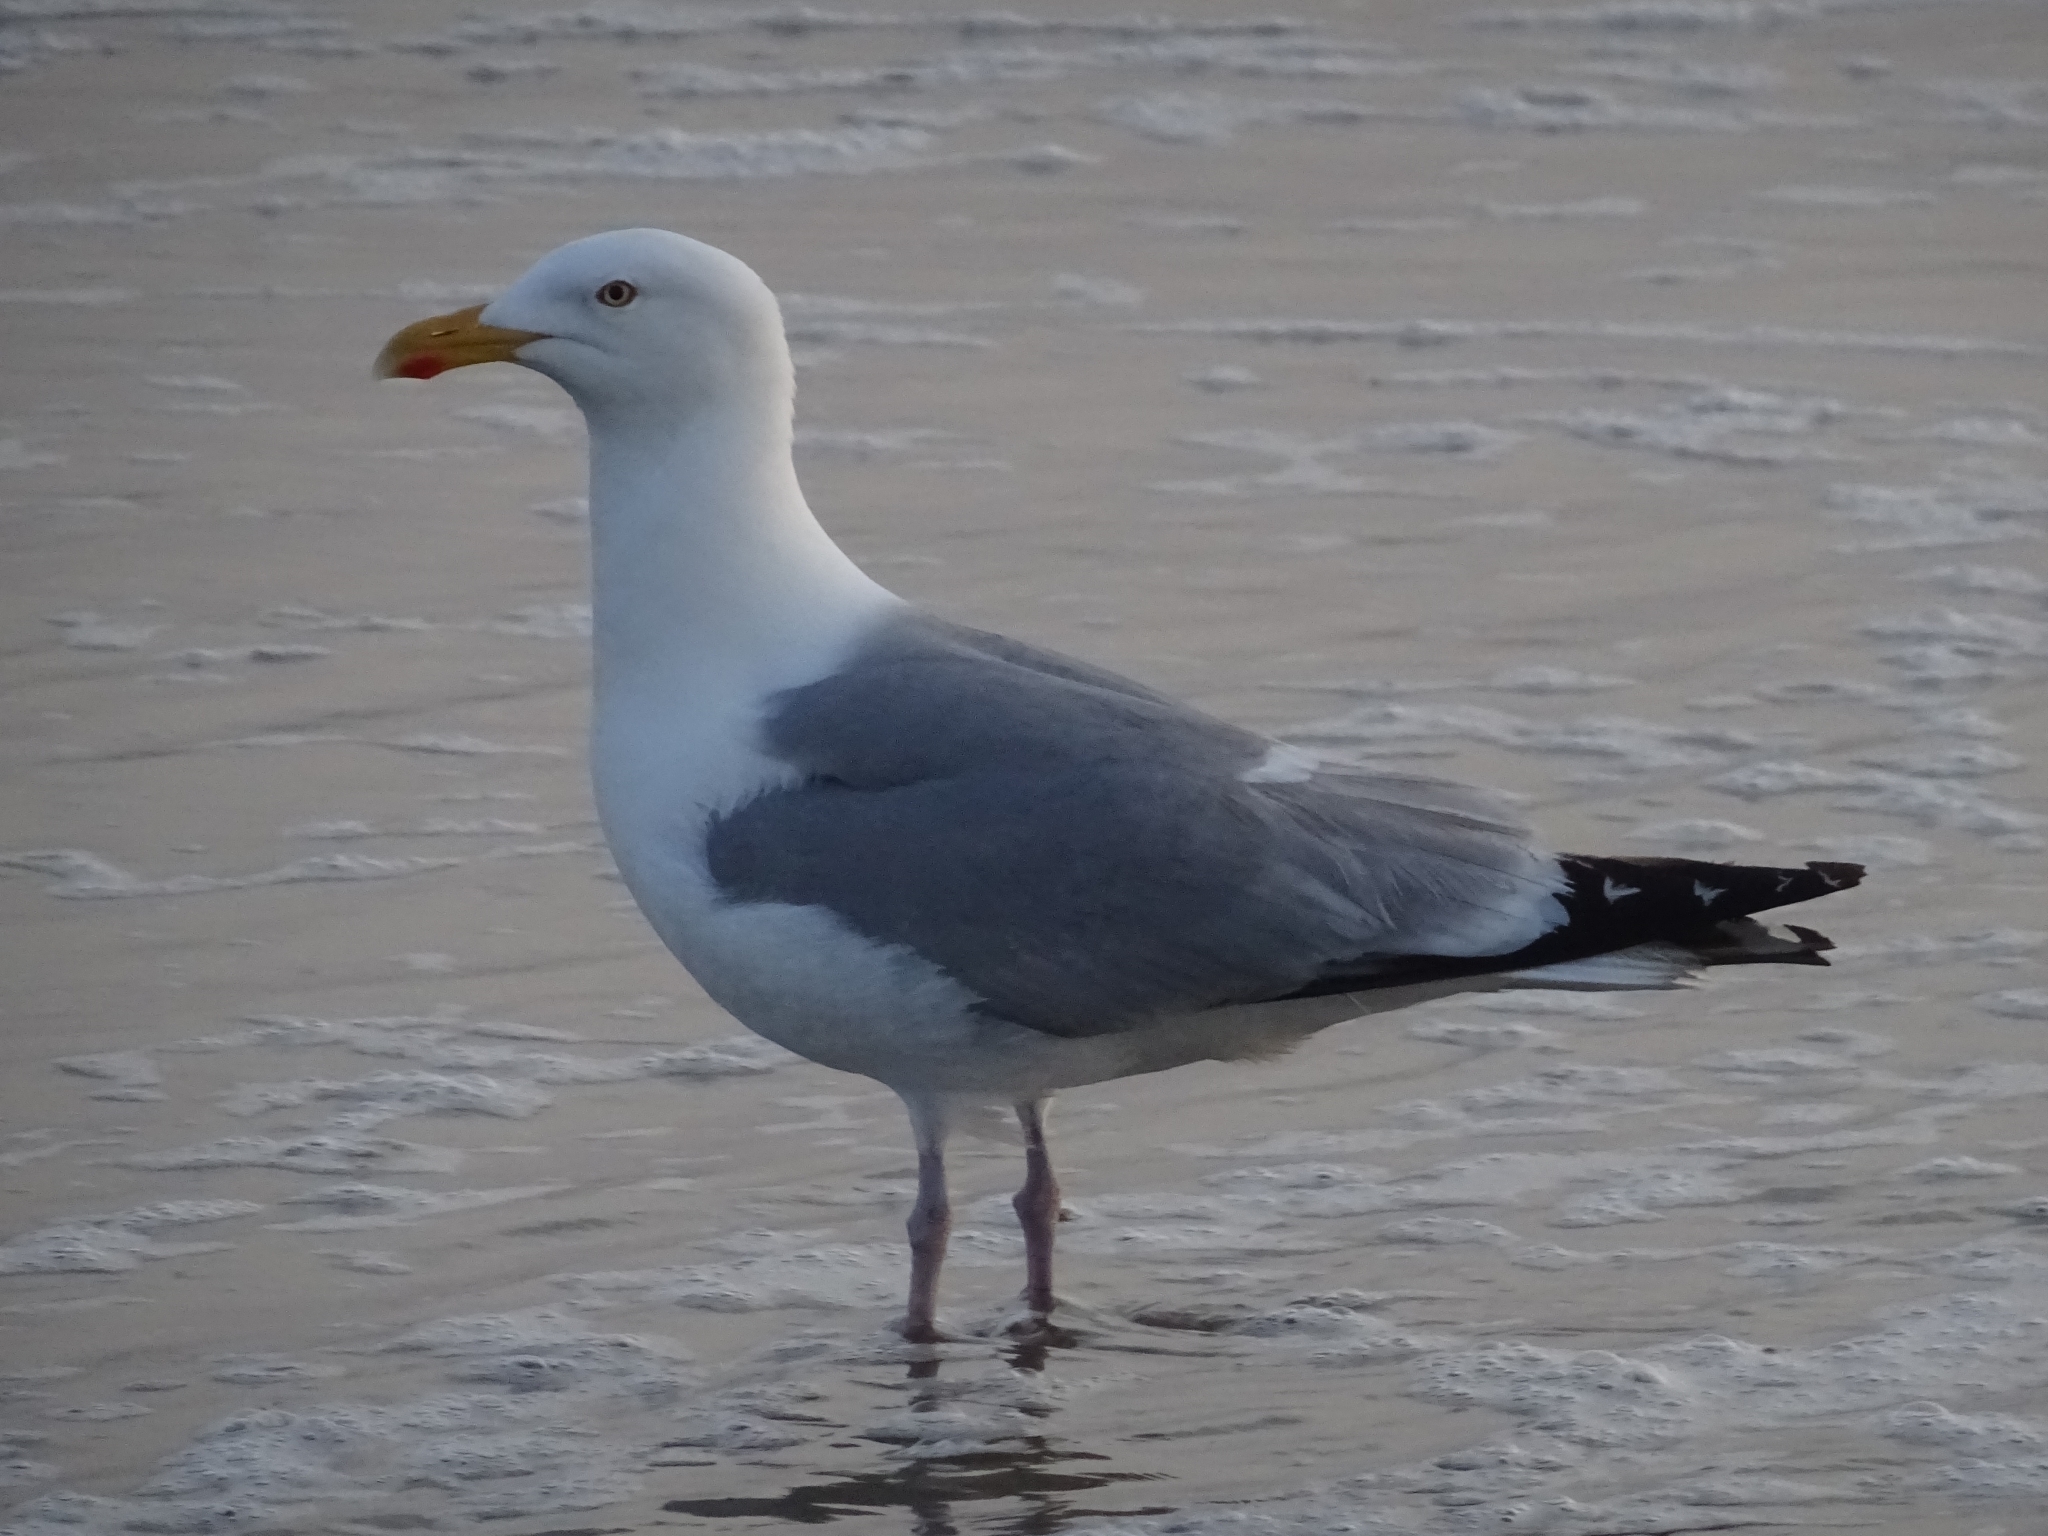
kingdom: Animalia
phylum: Chordata
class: Aves
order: Charadriiformes
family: Laridae
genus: Larus
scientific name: Larus argentatus
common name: Herring gull
